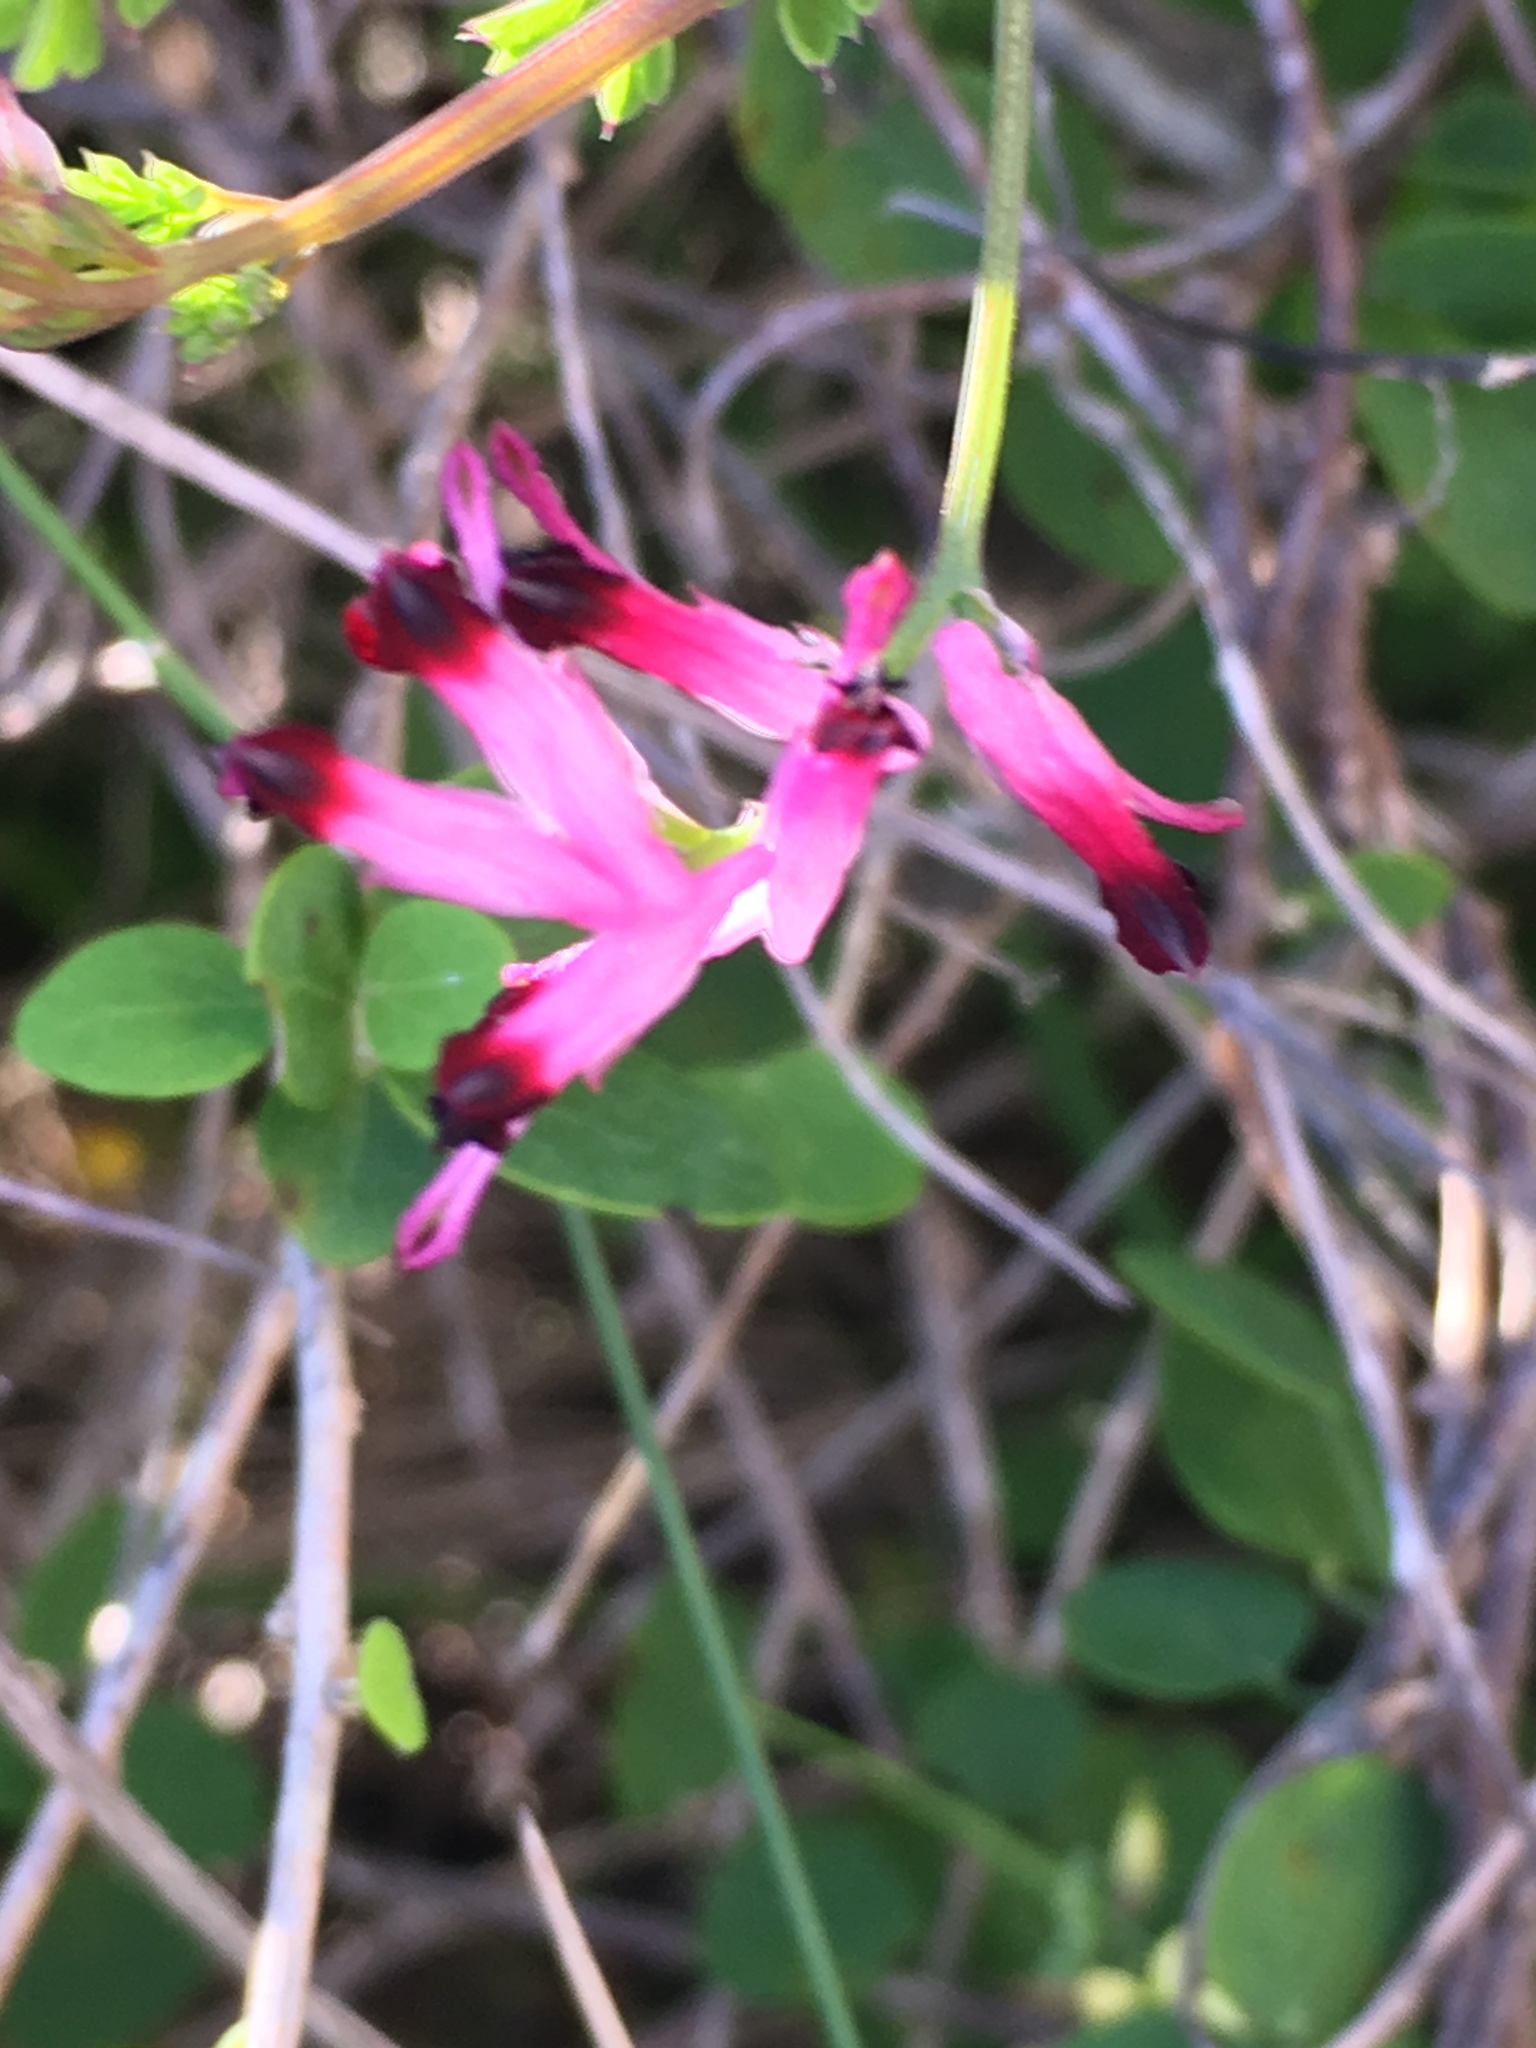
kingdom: Plantae
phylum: Tracheophyta
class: Magnoliopsida
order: Ranunculales
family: Papaveraceae
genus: Fumaria
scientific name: Fumaria muralis
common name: Common ramping-fumitory
